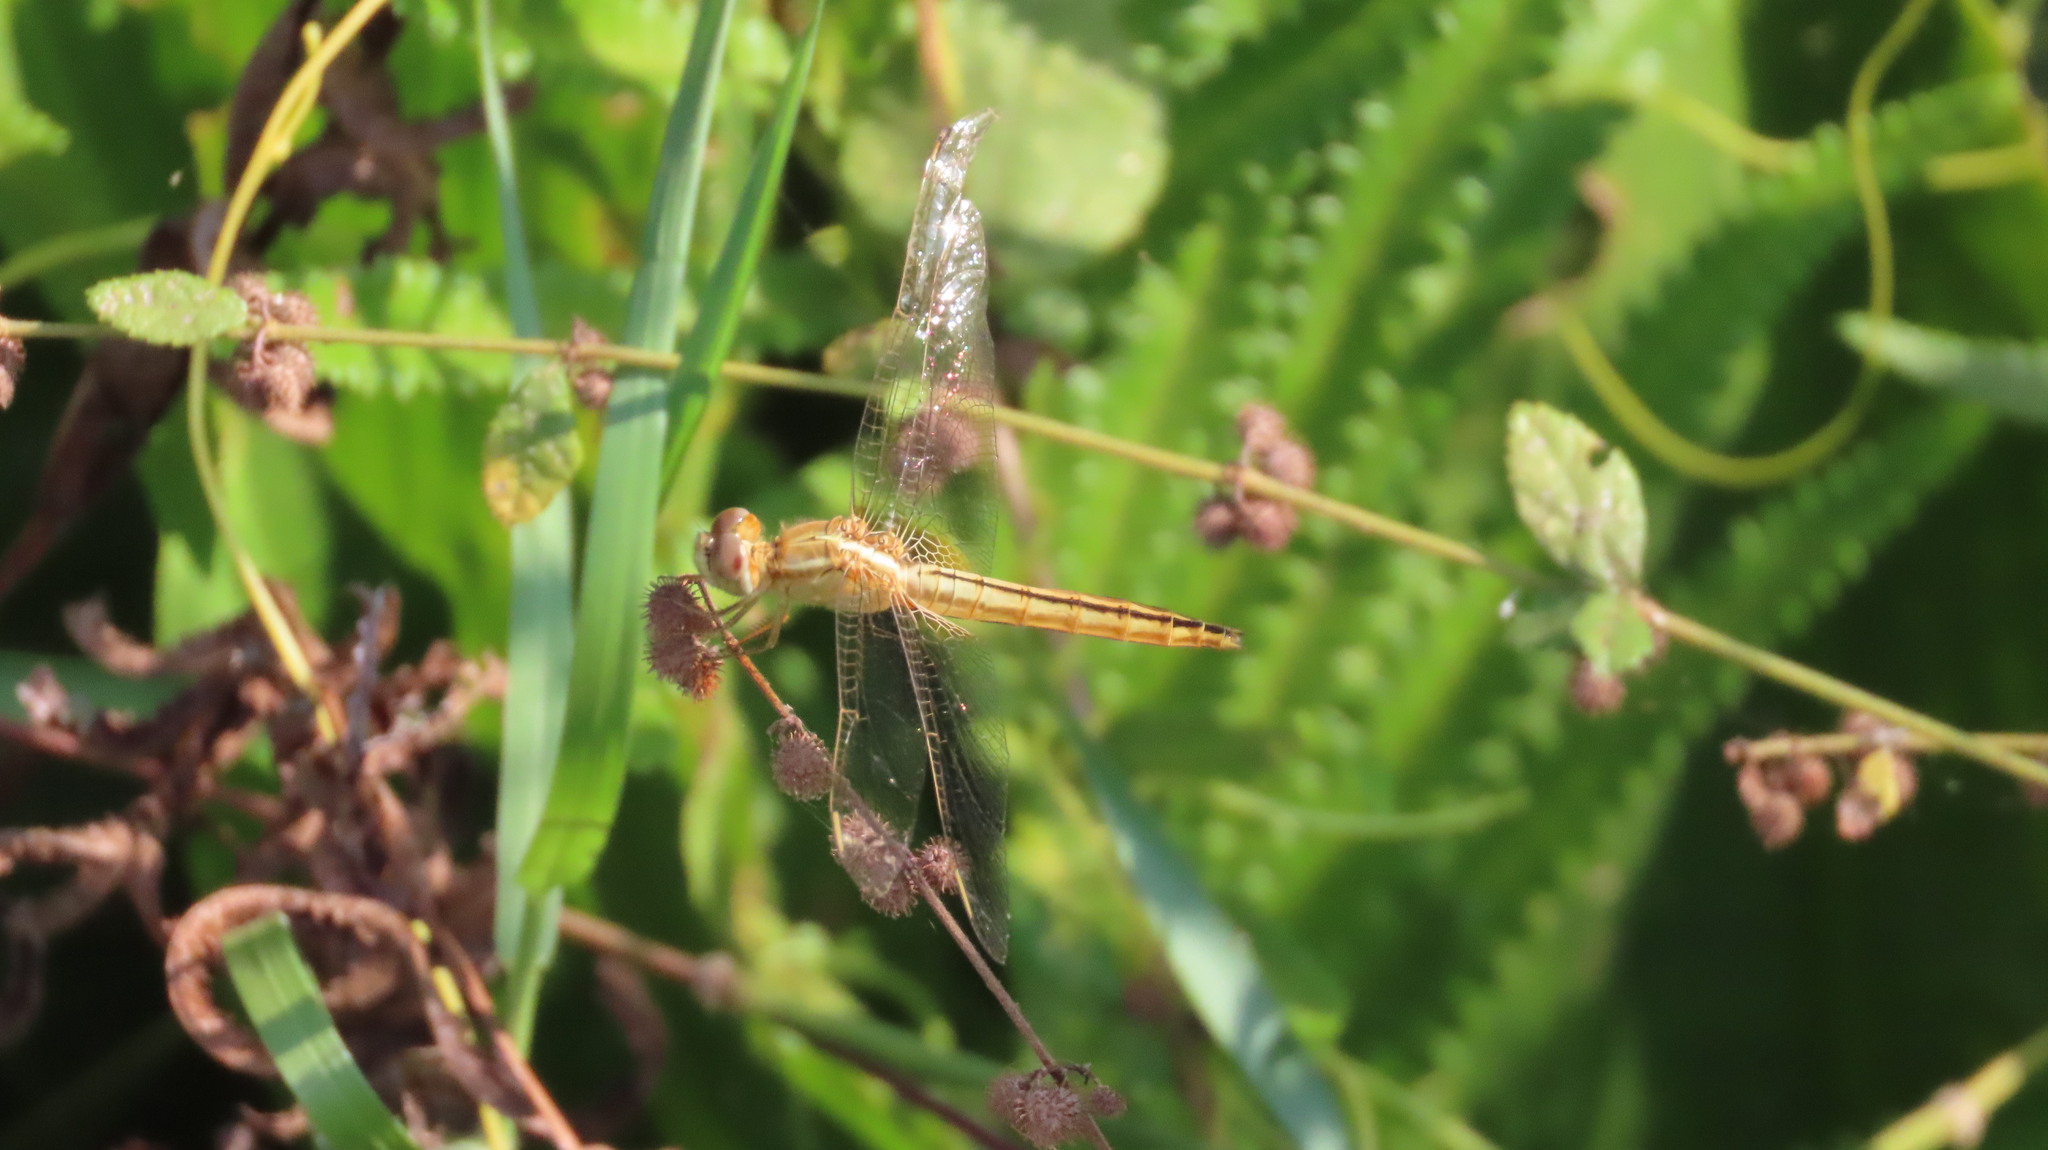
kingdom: Animalia
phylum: Arthropoda
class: Insecta
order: Odonata
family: Libellulidae
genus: Crocothemis
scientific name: Crocothemis servilia
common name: Scarlet skimmer
